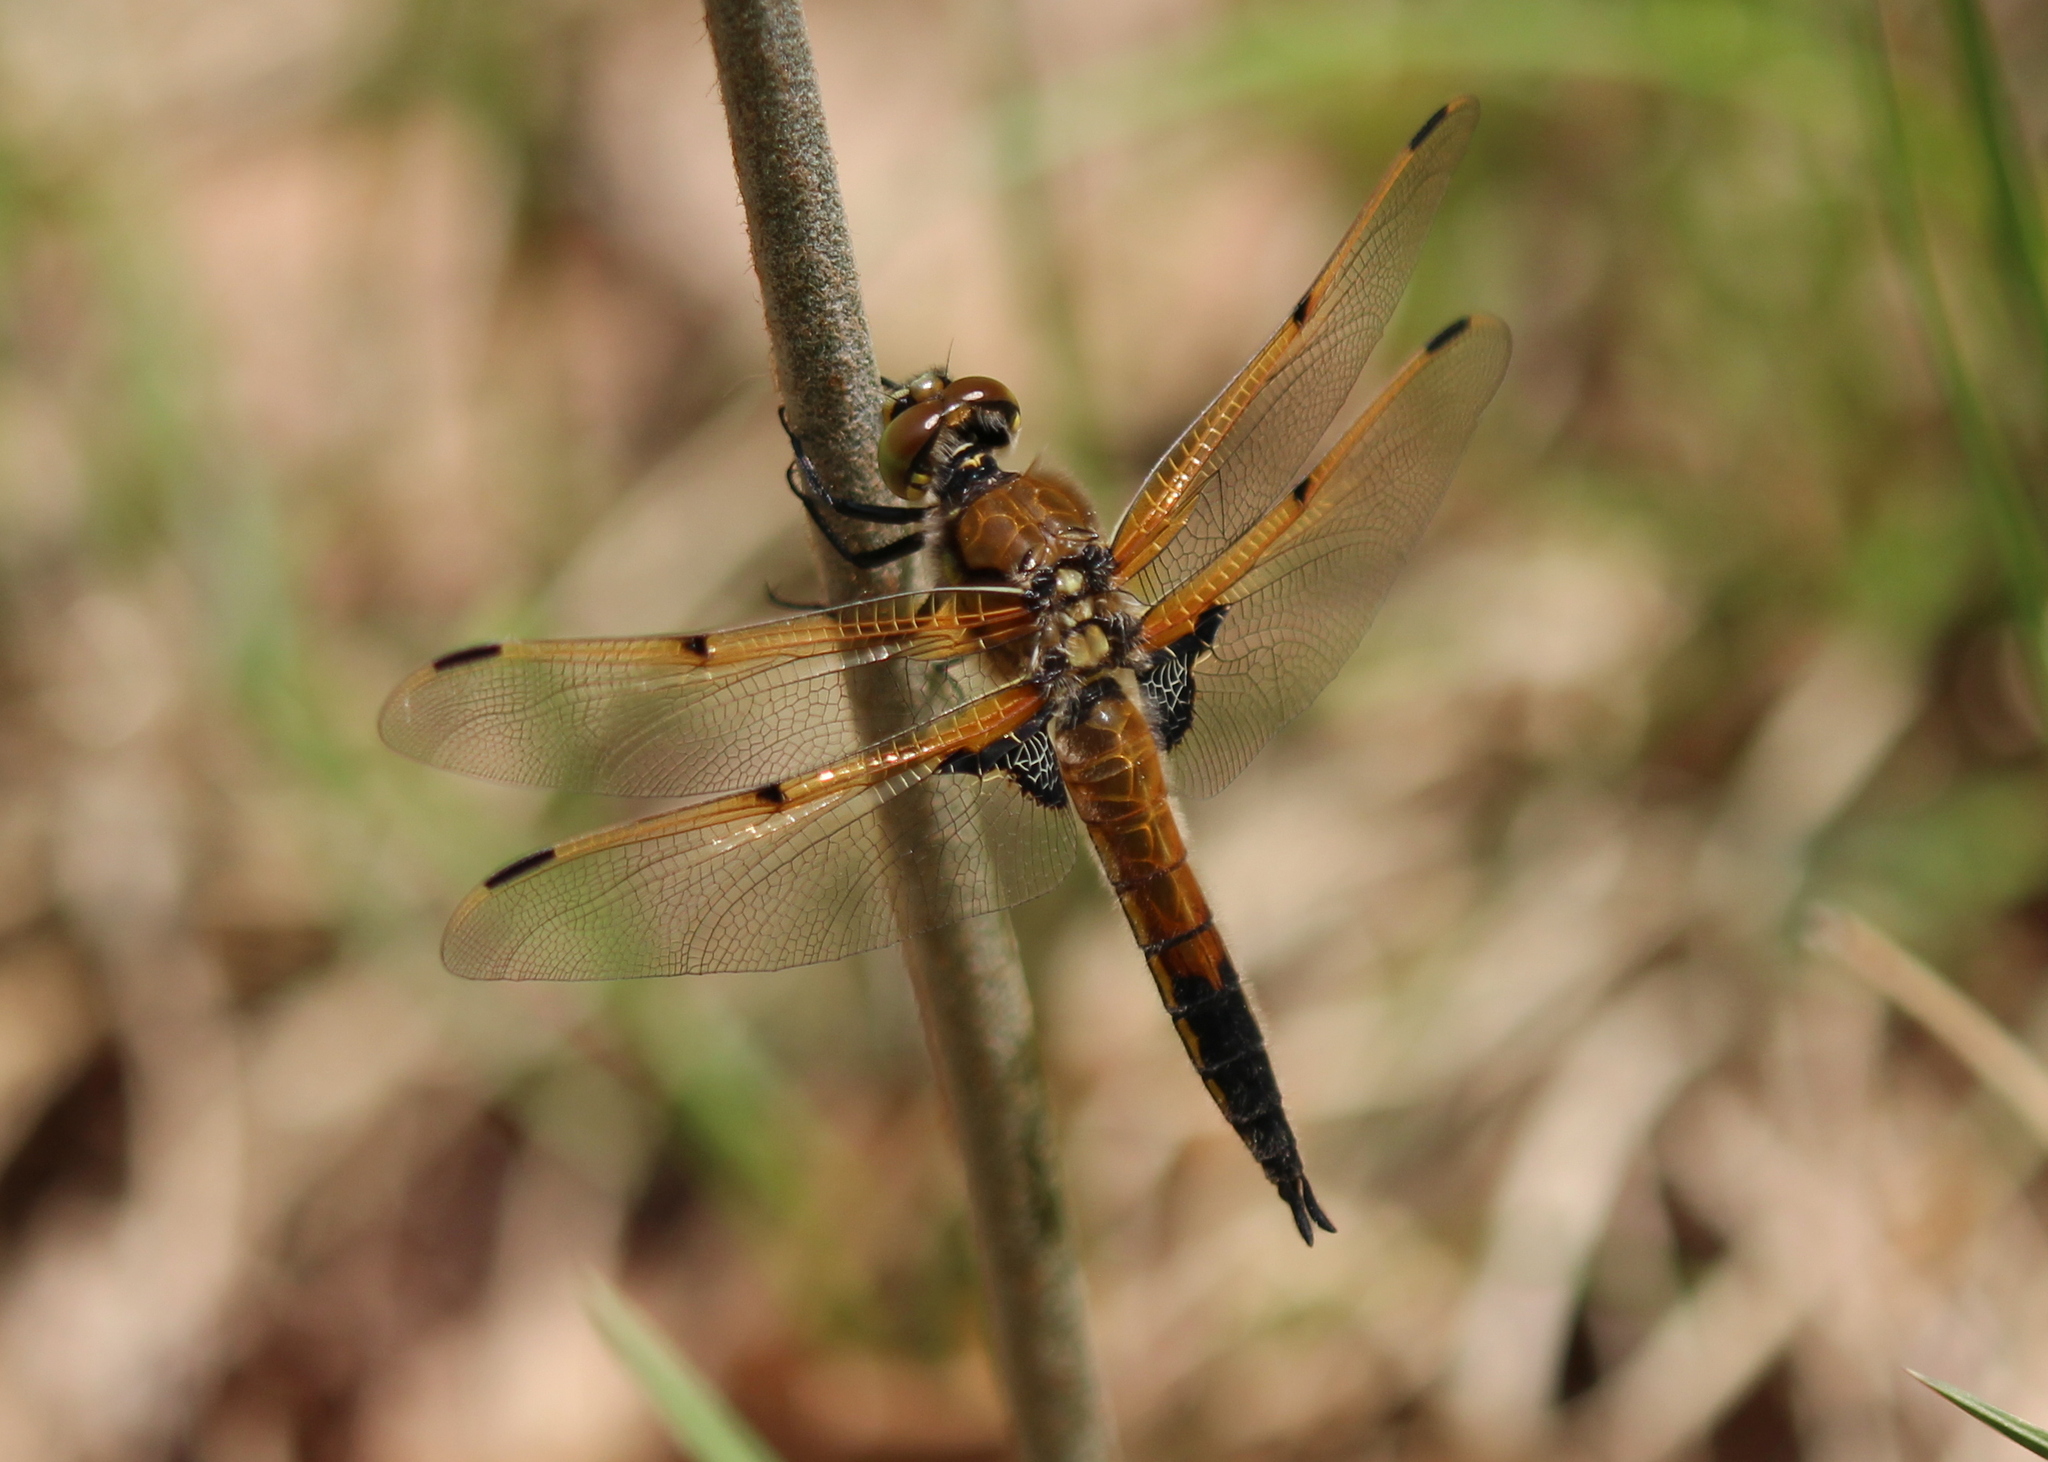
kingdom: Animalia
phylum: Arthropoda
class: Insecta
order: Odonata
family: Libellulidae
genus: Libellula
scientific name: Libellula quadrimaculata
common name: Four-spotted chaser
